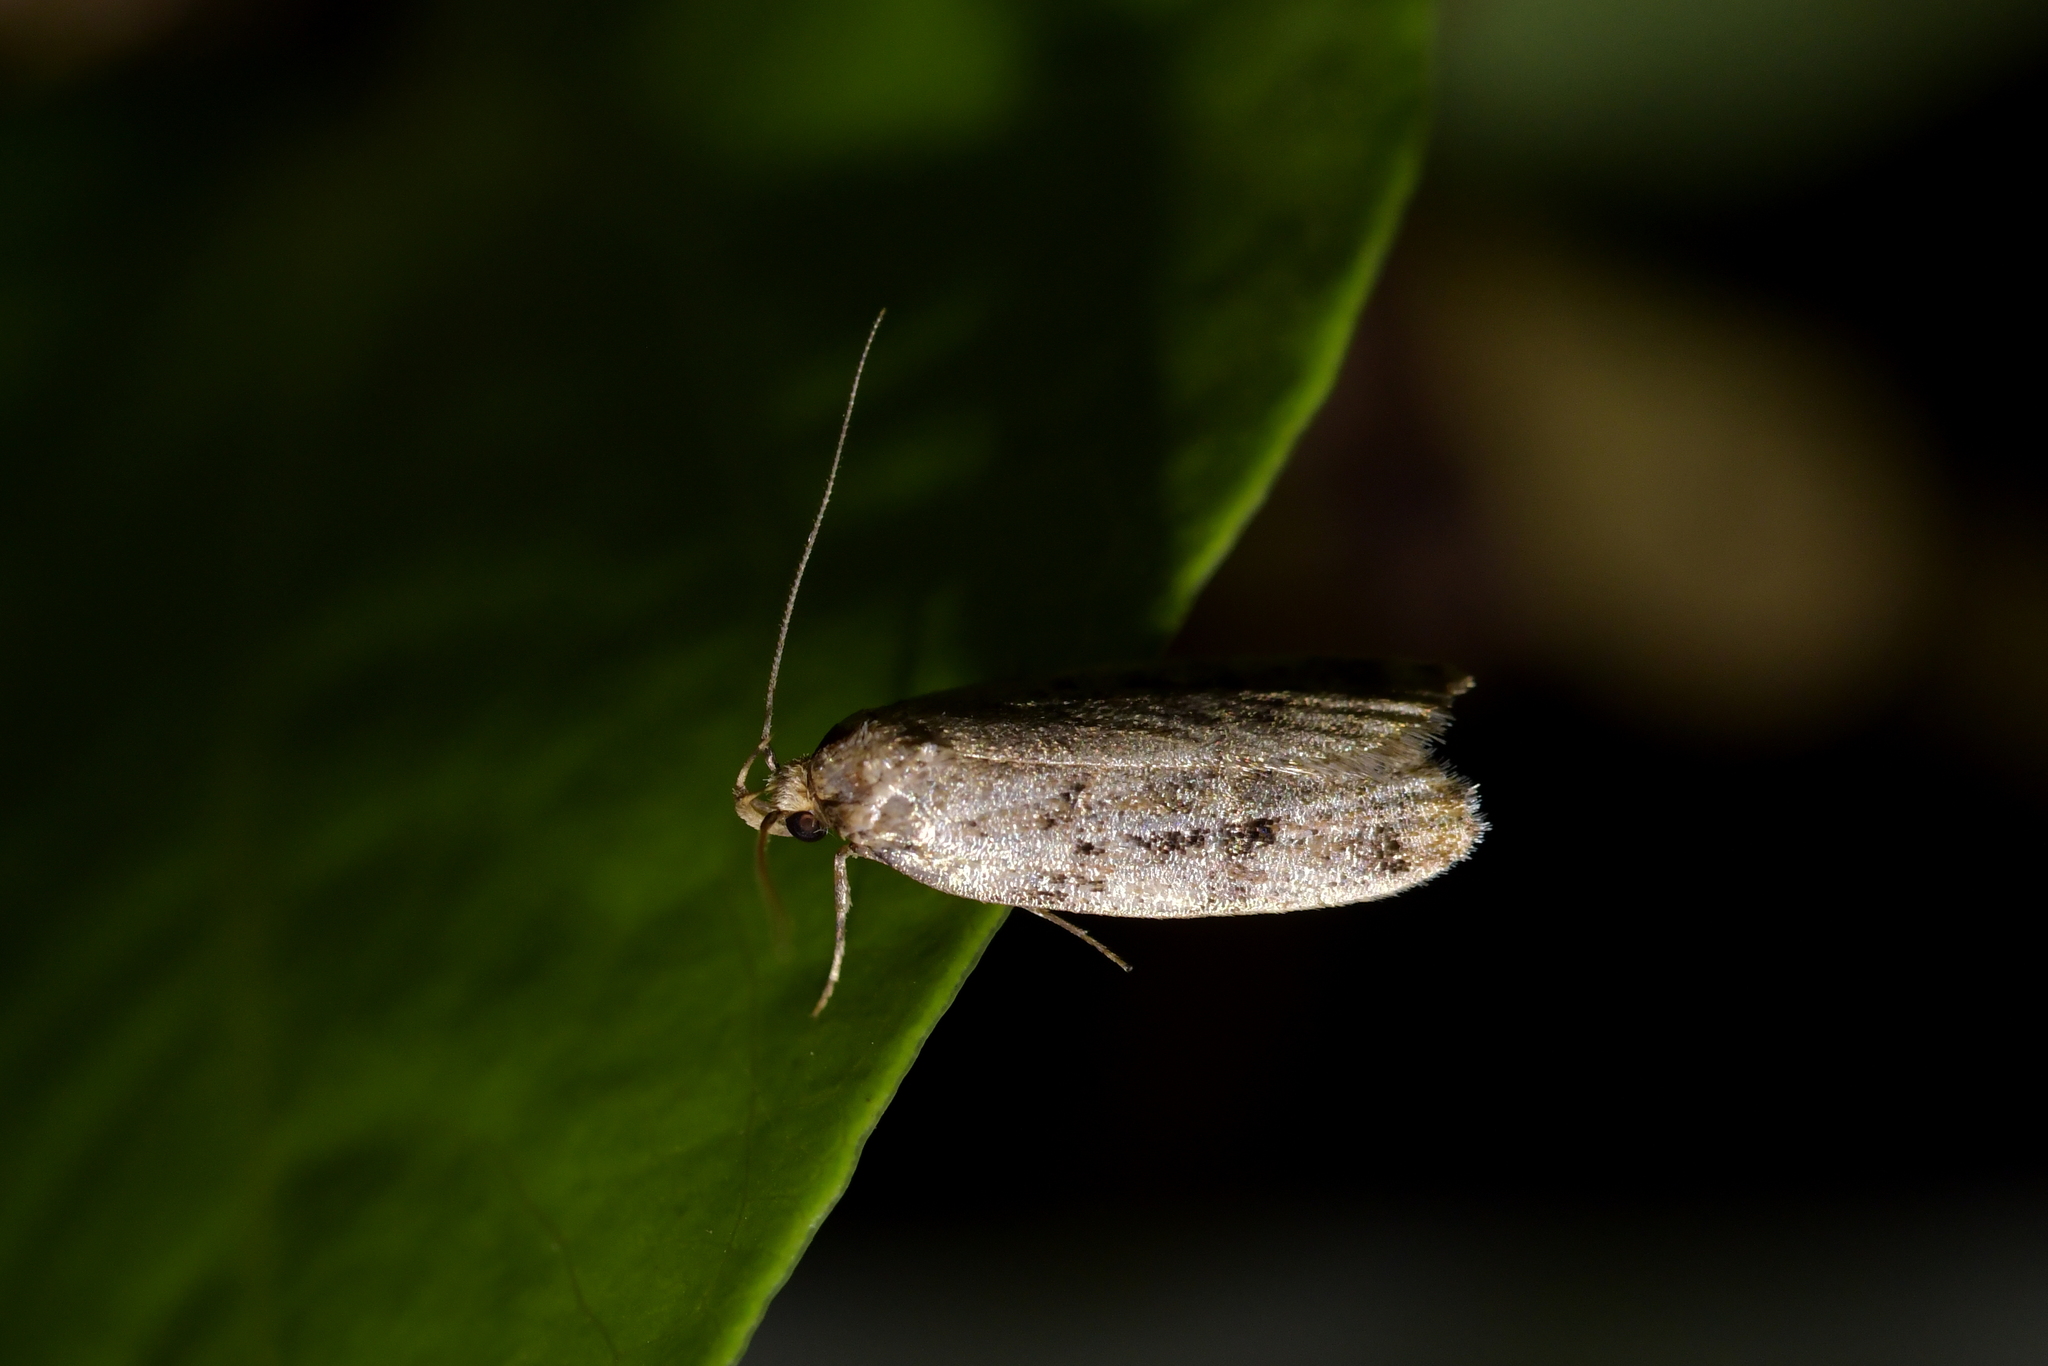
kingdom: Animalia
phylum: Arthropoda
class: Insecta
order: Lepidoptera
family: Oecophoridae
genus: Barea
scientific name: Barea exarcha
